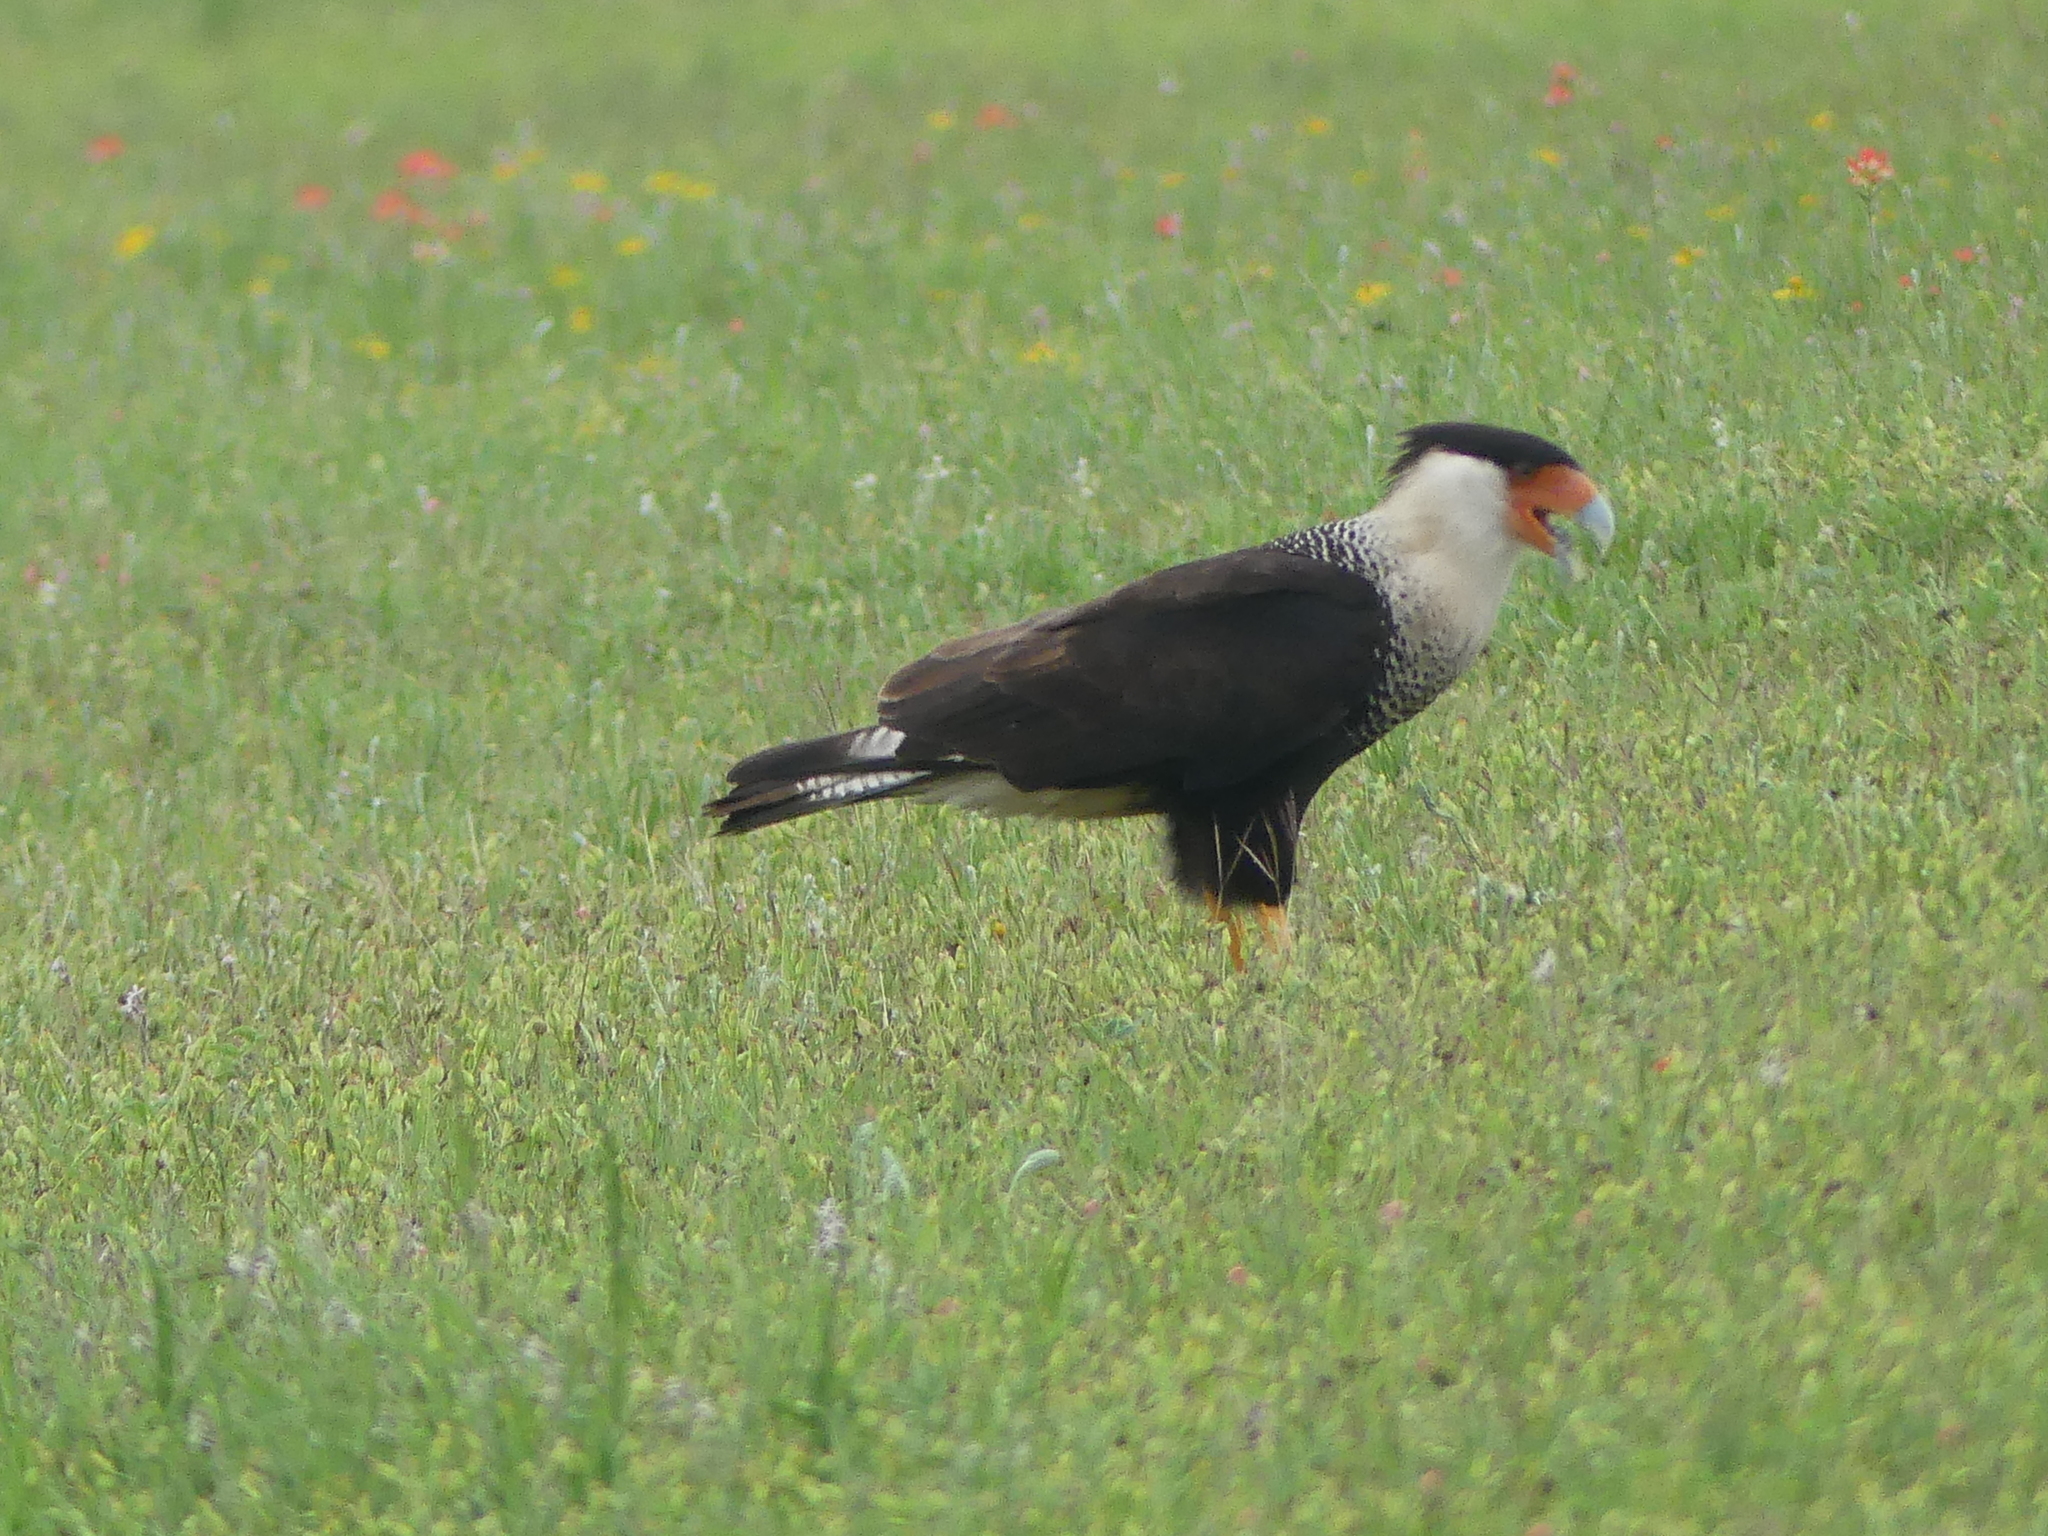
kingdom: Animalia
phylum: Chordata
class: Aves
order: Falconiformes
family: Falconidae
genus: Caracara
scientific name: Caracara plancus
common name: Southern caracara
